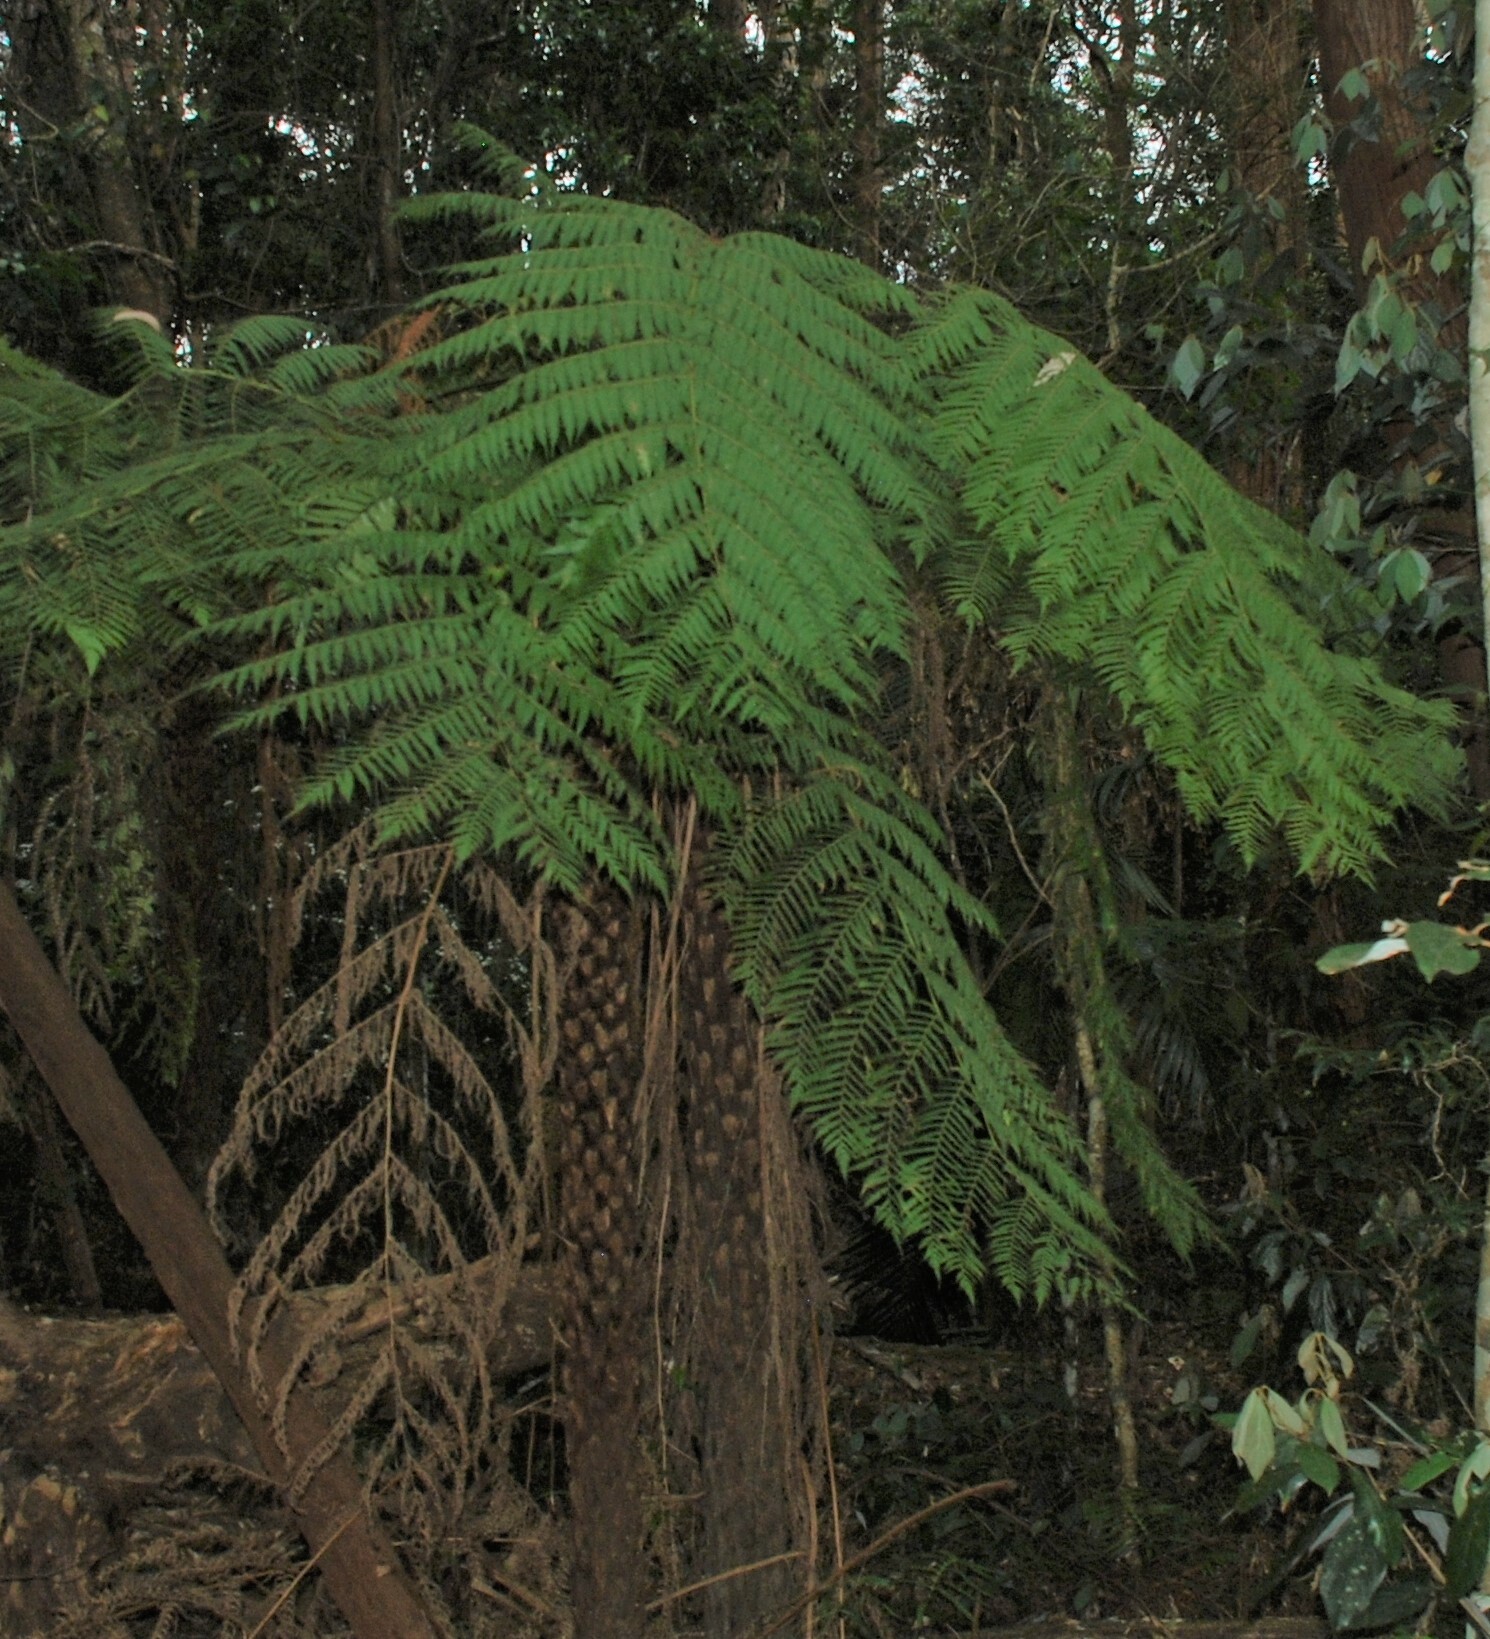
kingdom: Plantae
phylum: Tracheophyta
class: Polypodiopsida
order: Cyatheales
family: Cyatheaceae
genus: Alsophila
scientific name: Alsophila australis
